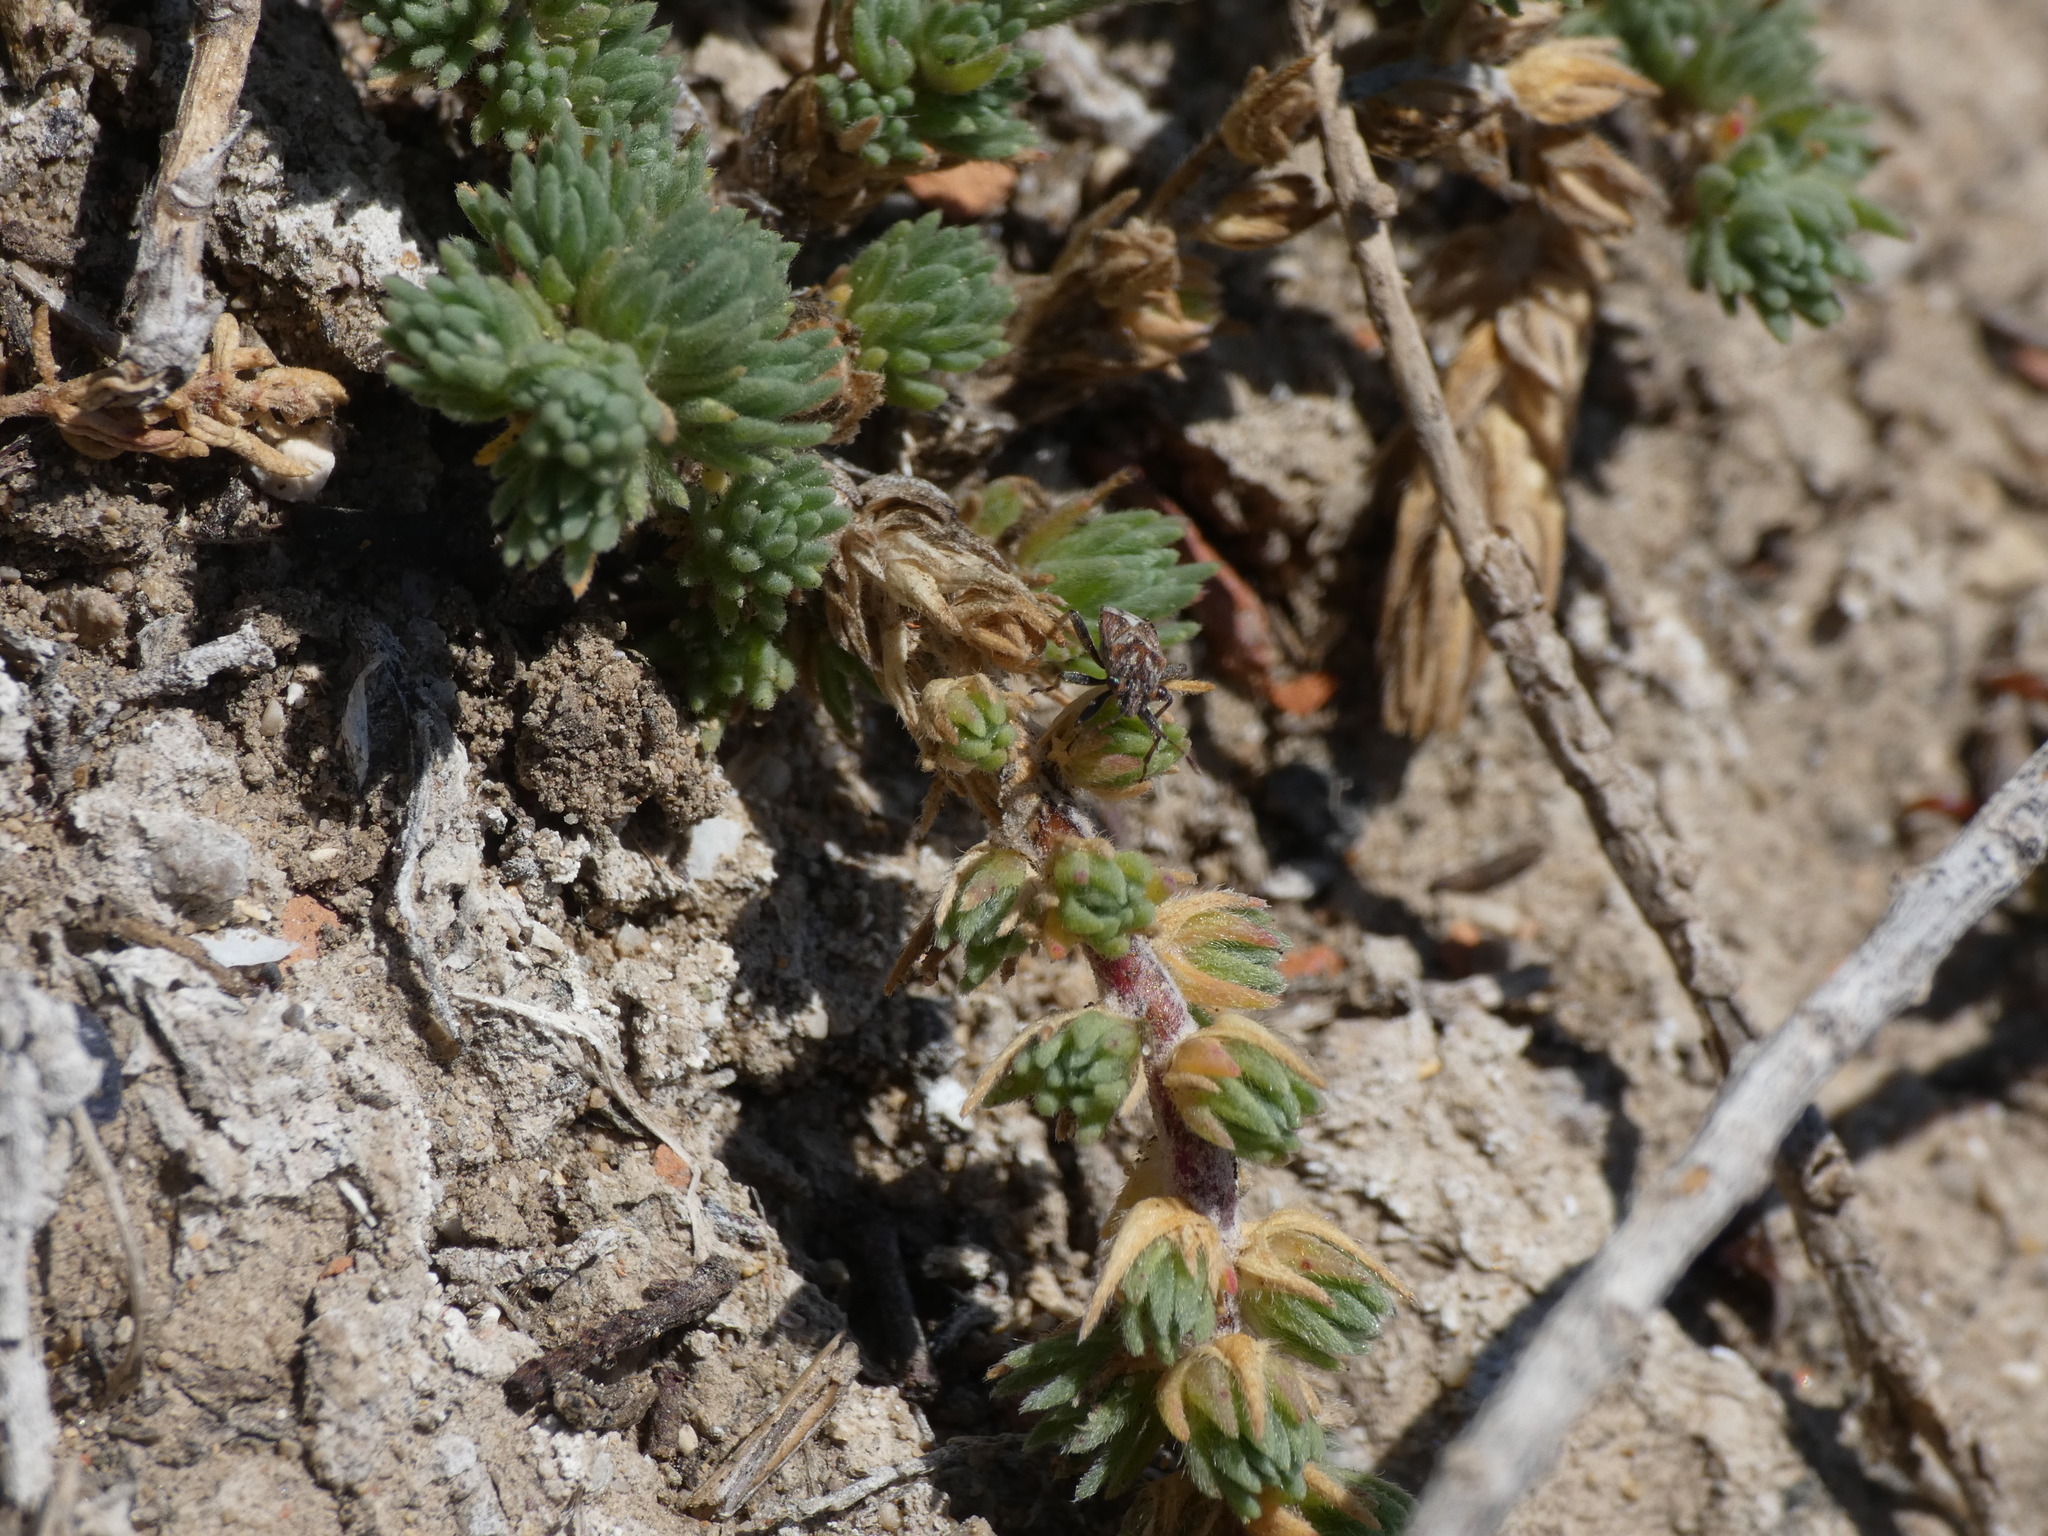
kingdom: Animalia
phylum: Arthropoda
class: Insecta
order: Hemiptera
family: Geocoridae
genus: Henestaris
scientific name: Henestaris laticeps
